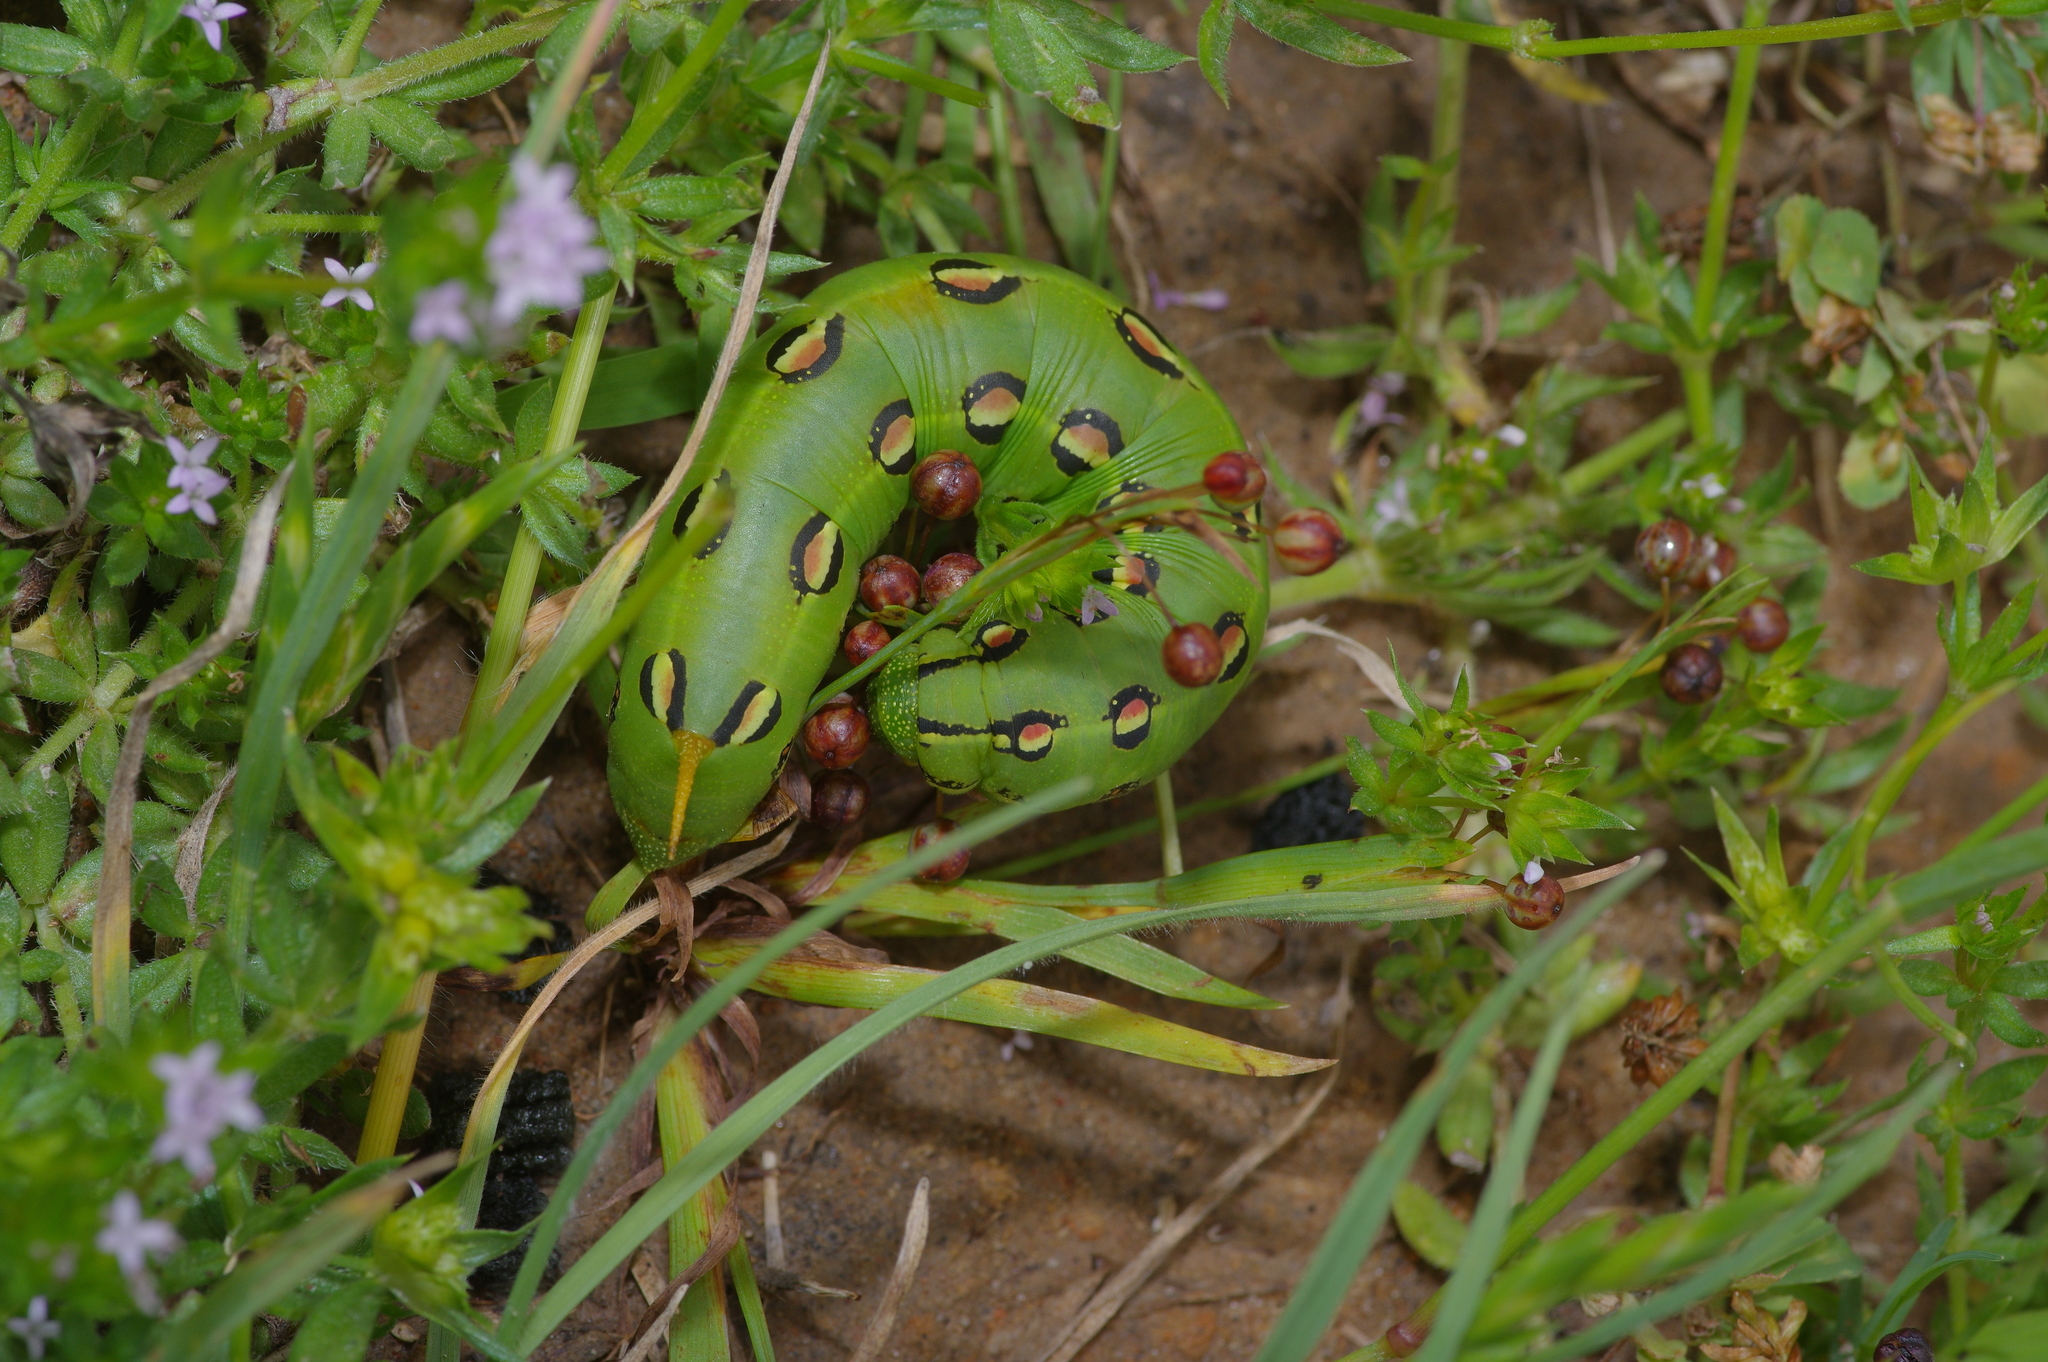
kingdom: Animalia
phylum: Arthropoda
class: Insecta
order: Lepidoptera
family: Sphingidae
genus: Hyles
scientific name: Hyles lineata
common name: White-lined sphinx
